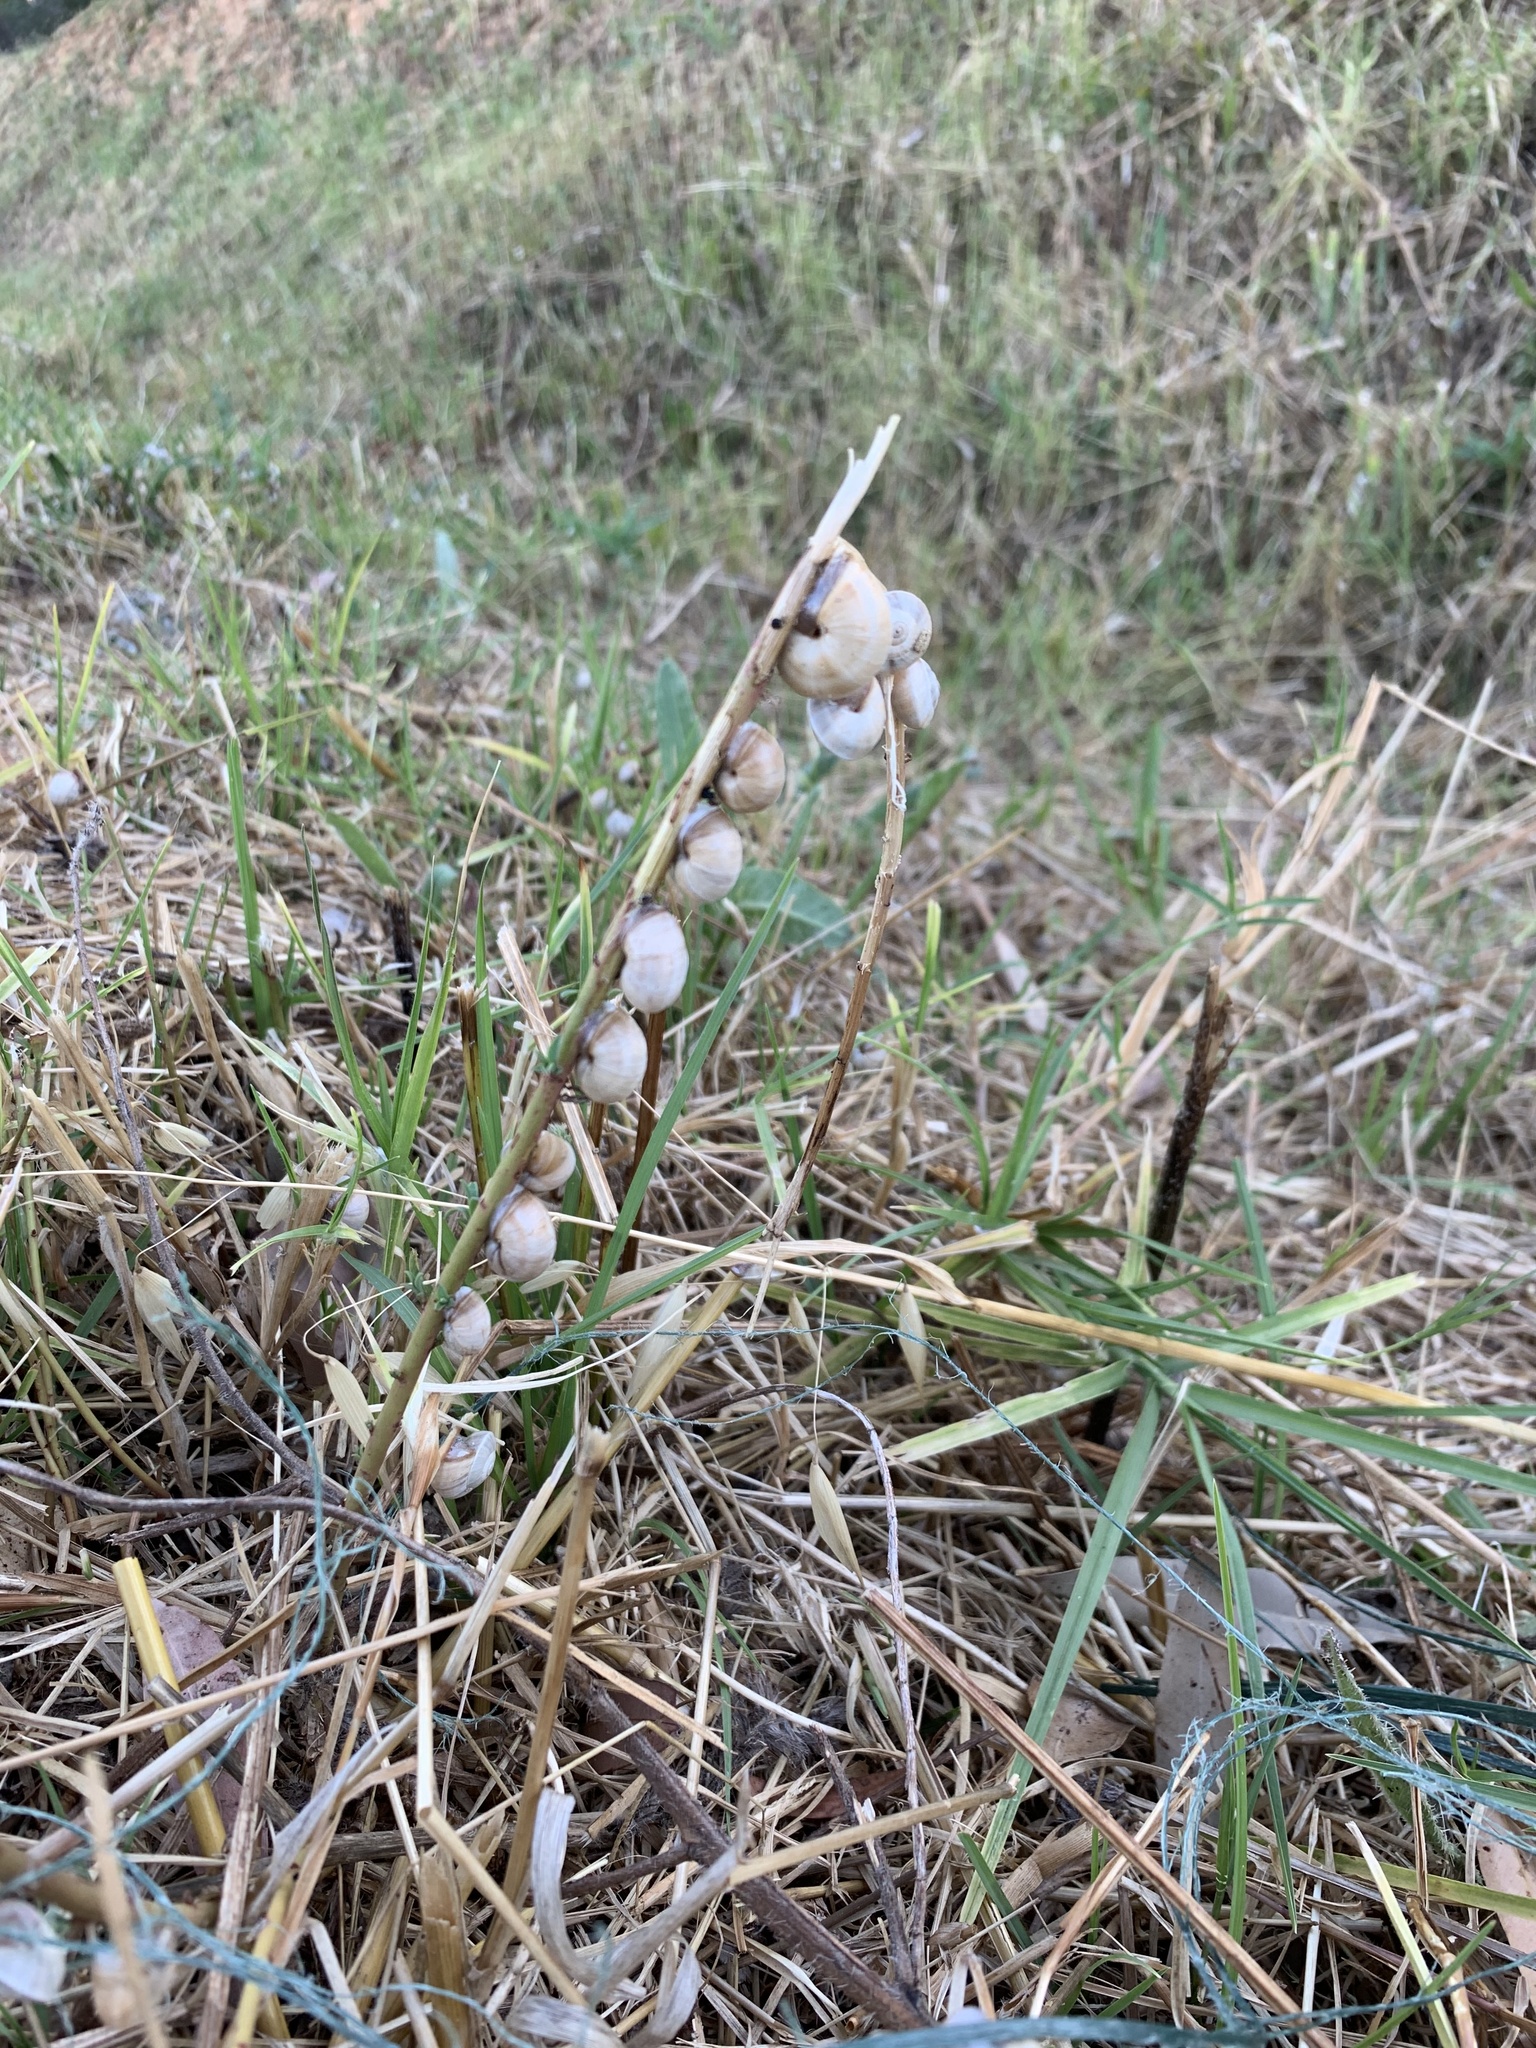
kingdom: Animalia
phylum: Mollusca
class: Gastropoda
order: Stylommatophora
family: Helicidae
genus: Theba
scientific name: Theba pisana
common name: White snail
